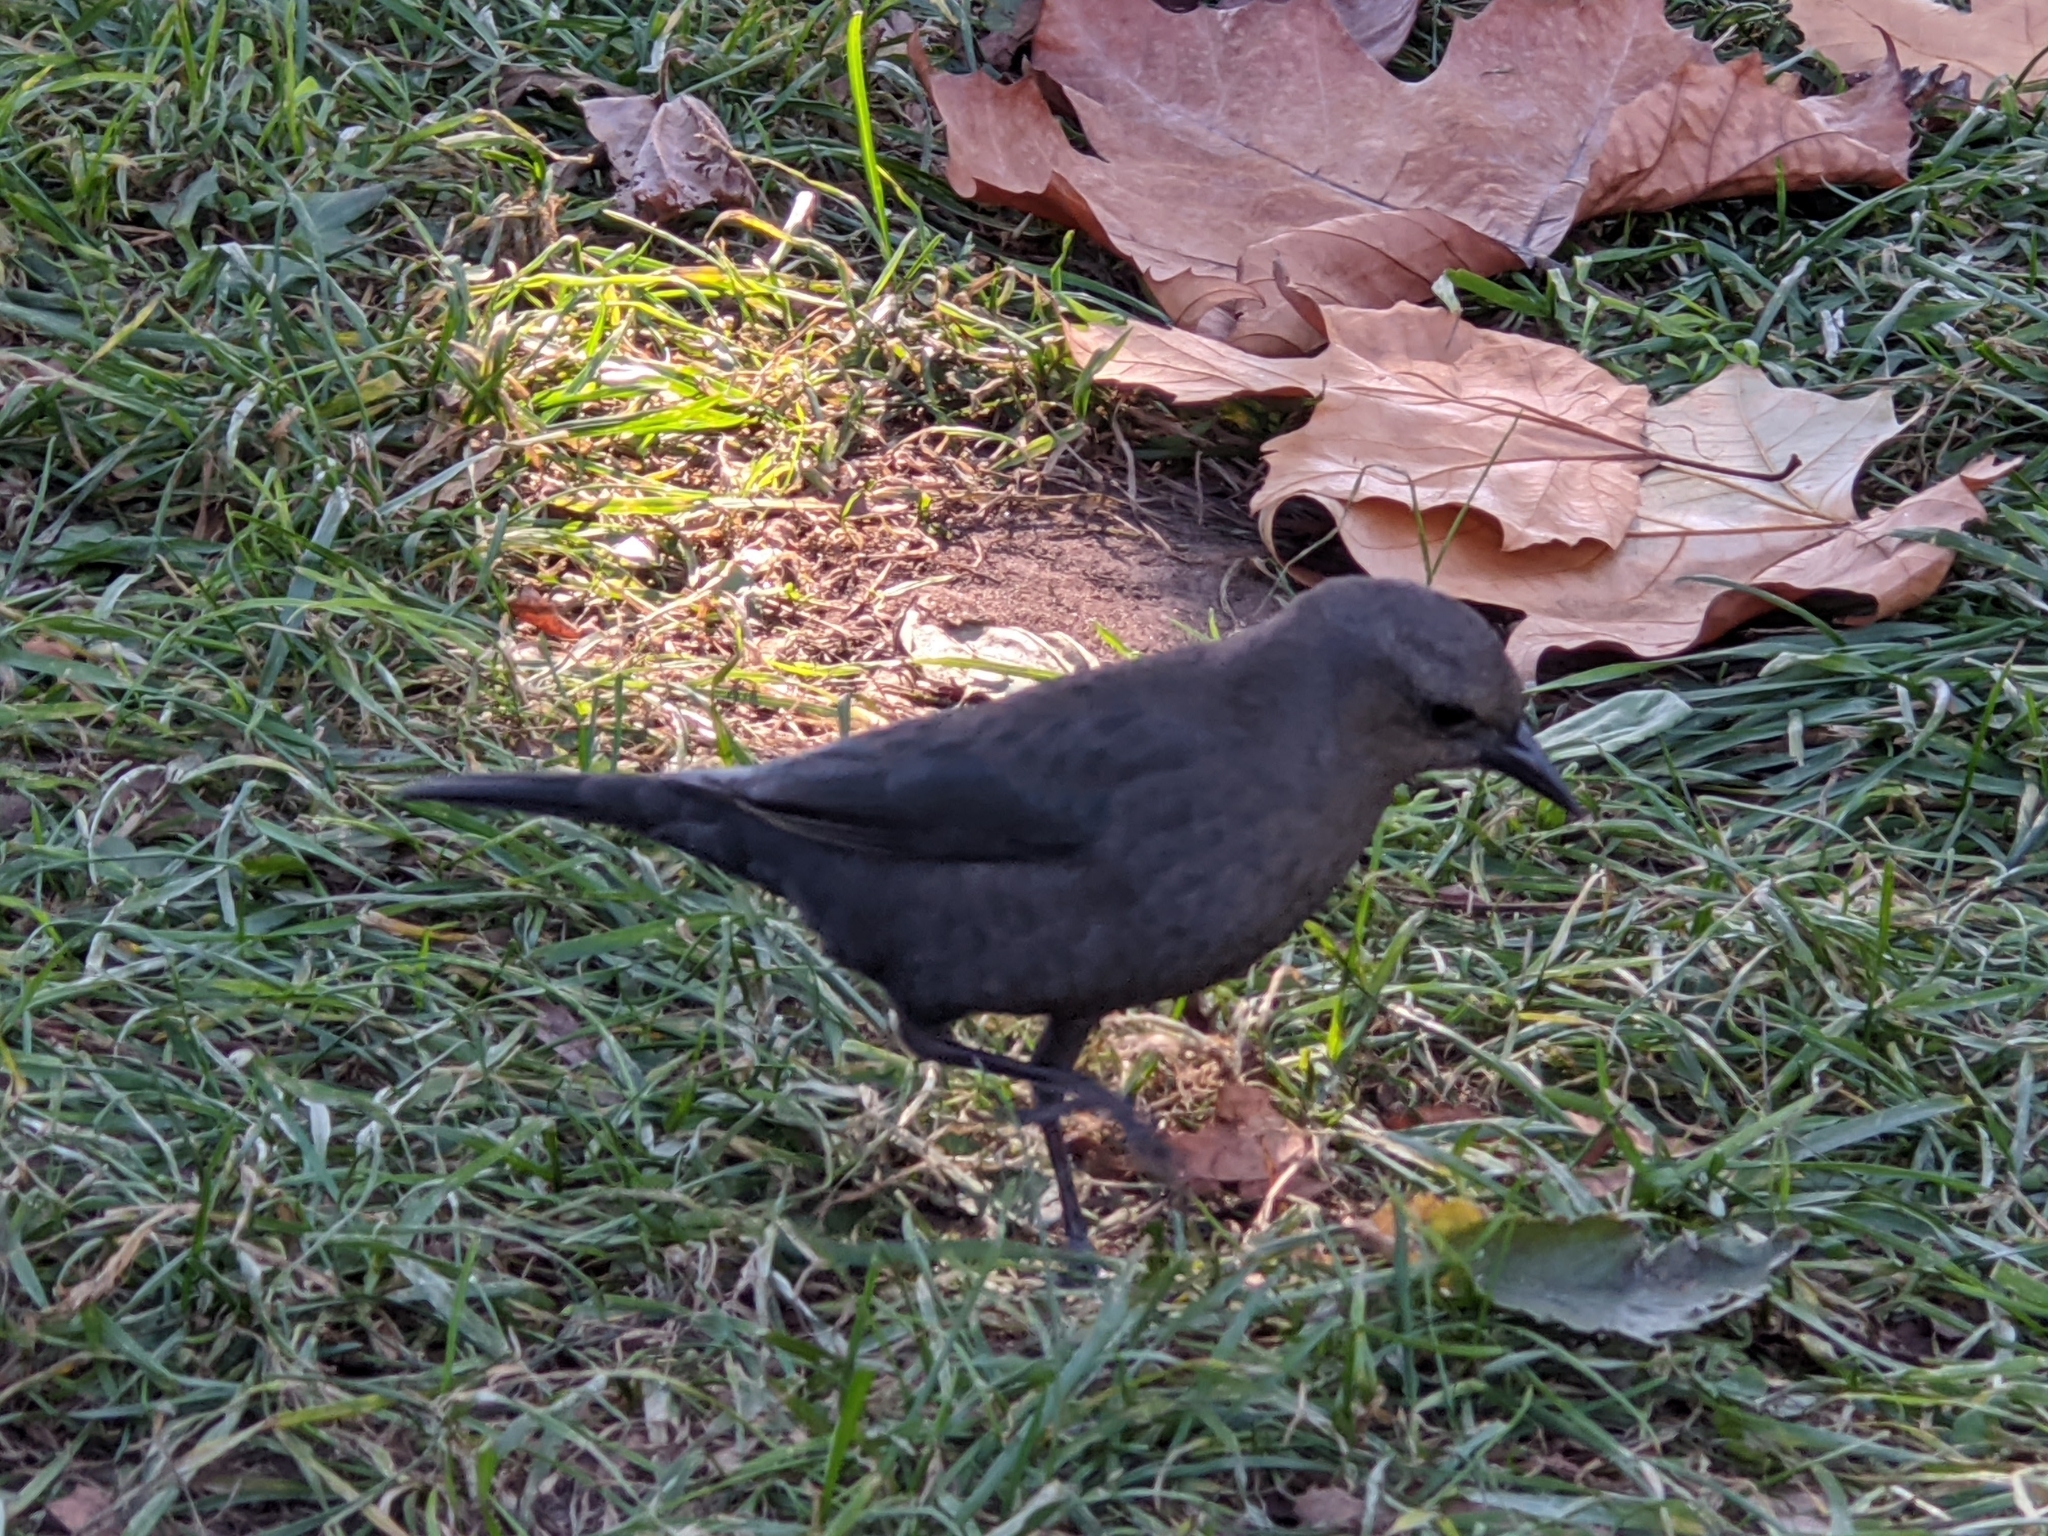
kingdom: Animalia
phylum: Chordata
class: Aves
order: Passeriformes
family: Icteridae
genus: Euphagus
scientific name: Euphagus cyanocephalus
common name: Brewer's blackbird
